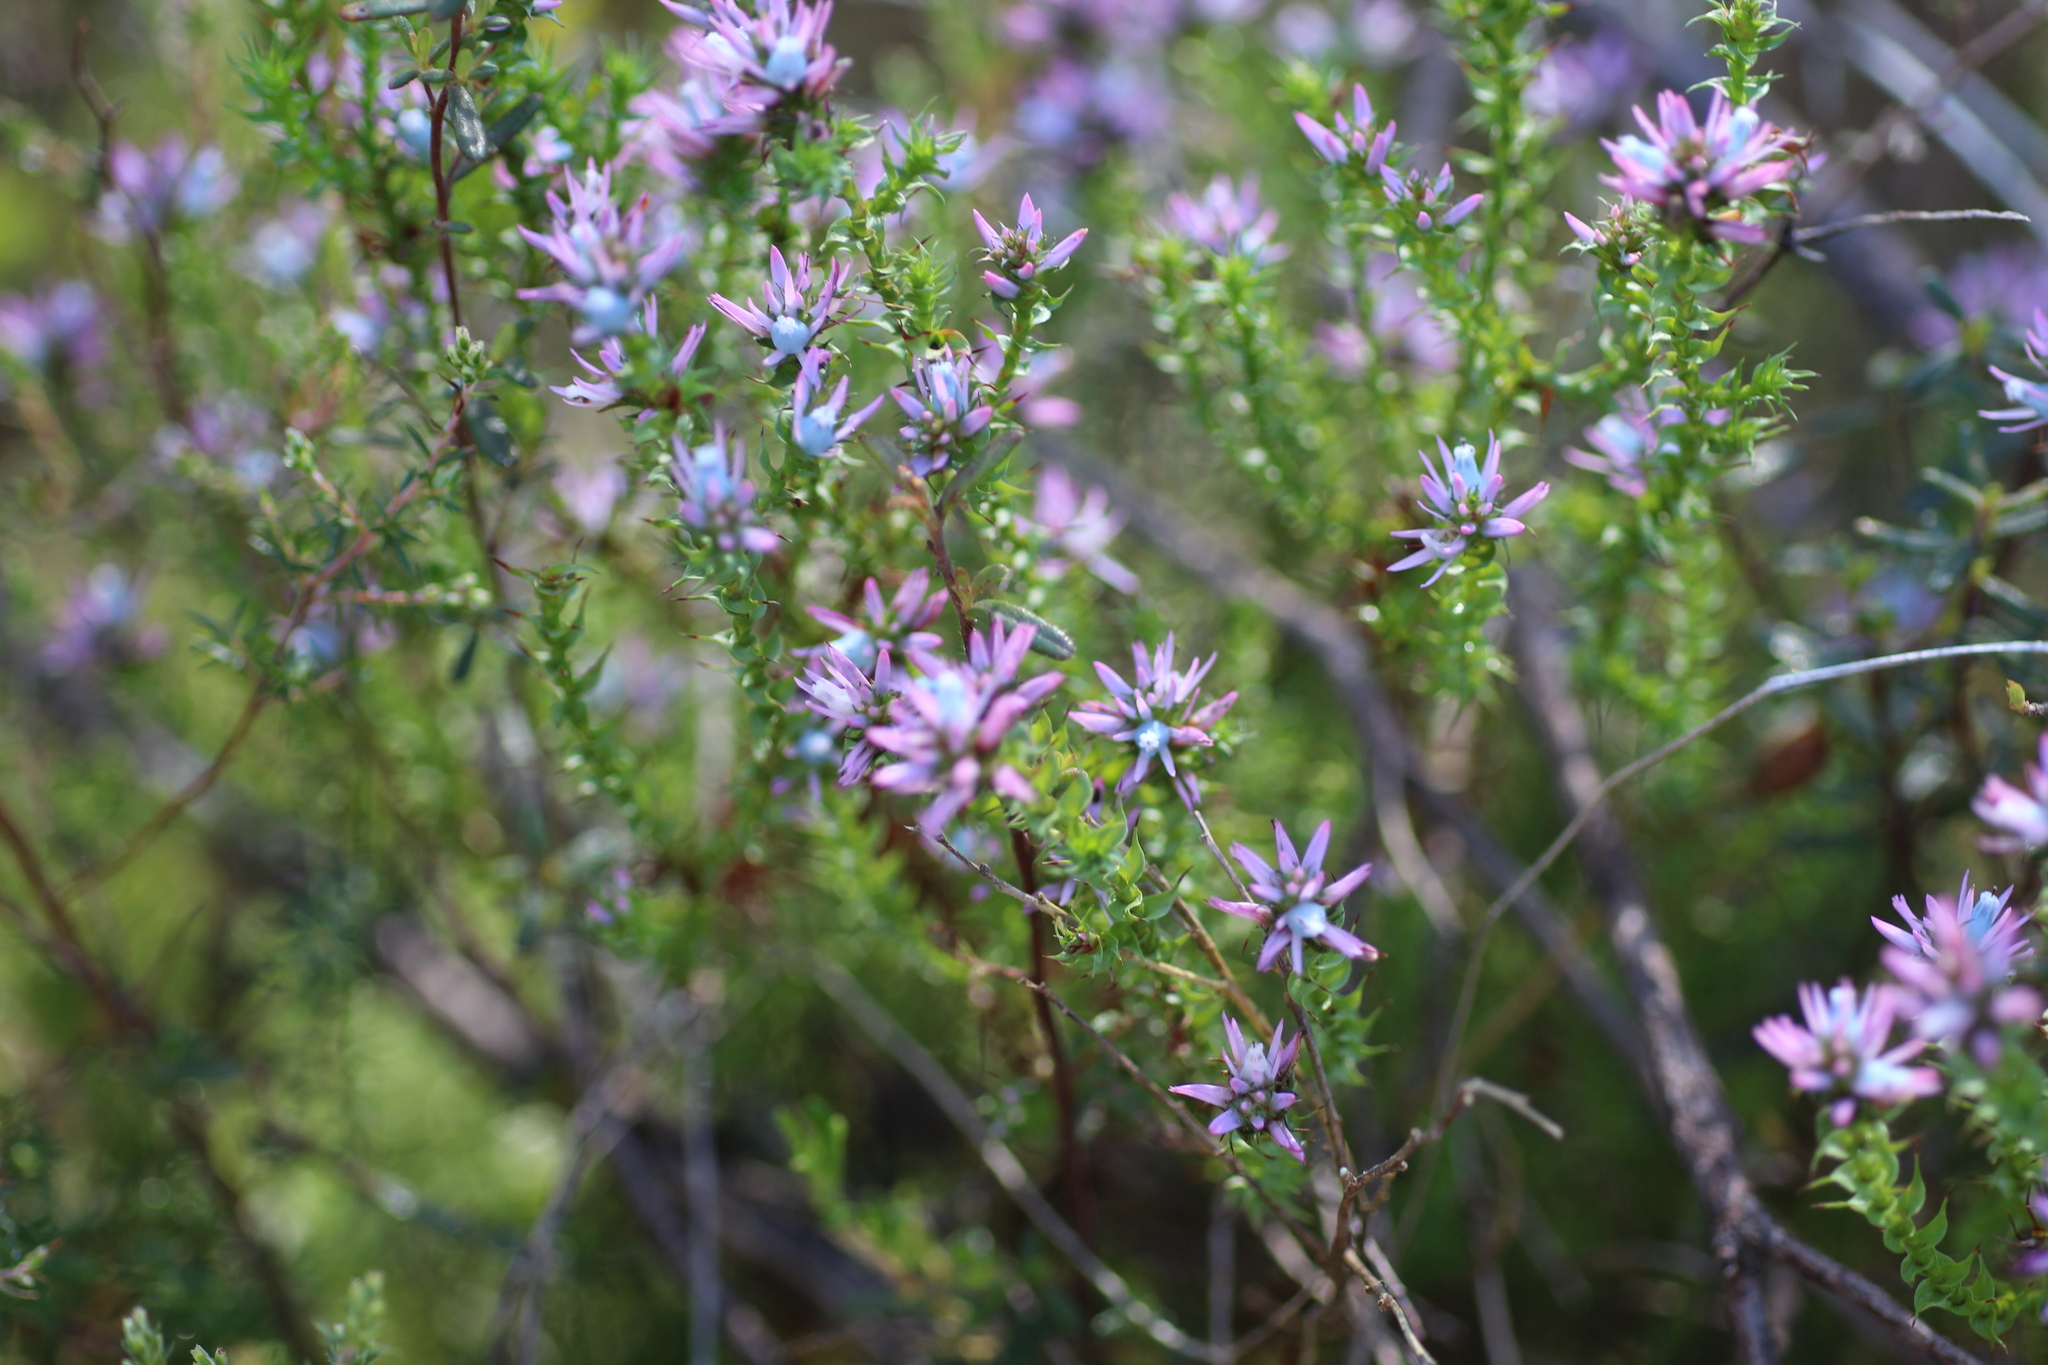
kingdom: Plantae
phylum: Tracheophyta
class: Magnoliopsida
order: Ericales
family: Ericaceae
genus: Andersonia
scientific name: Andersonia lehmanniana
